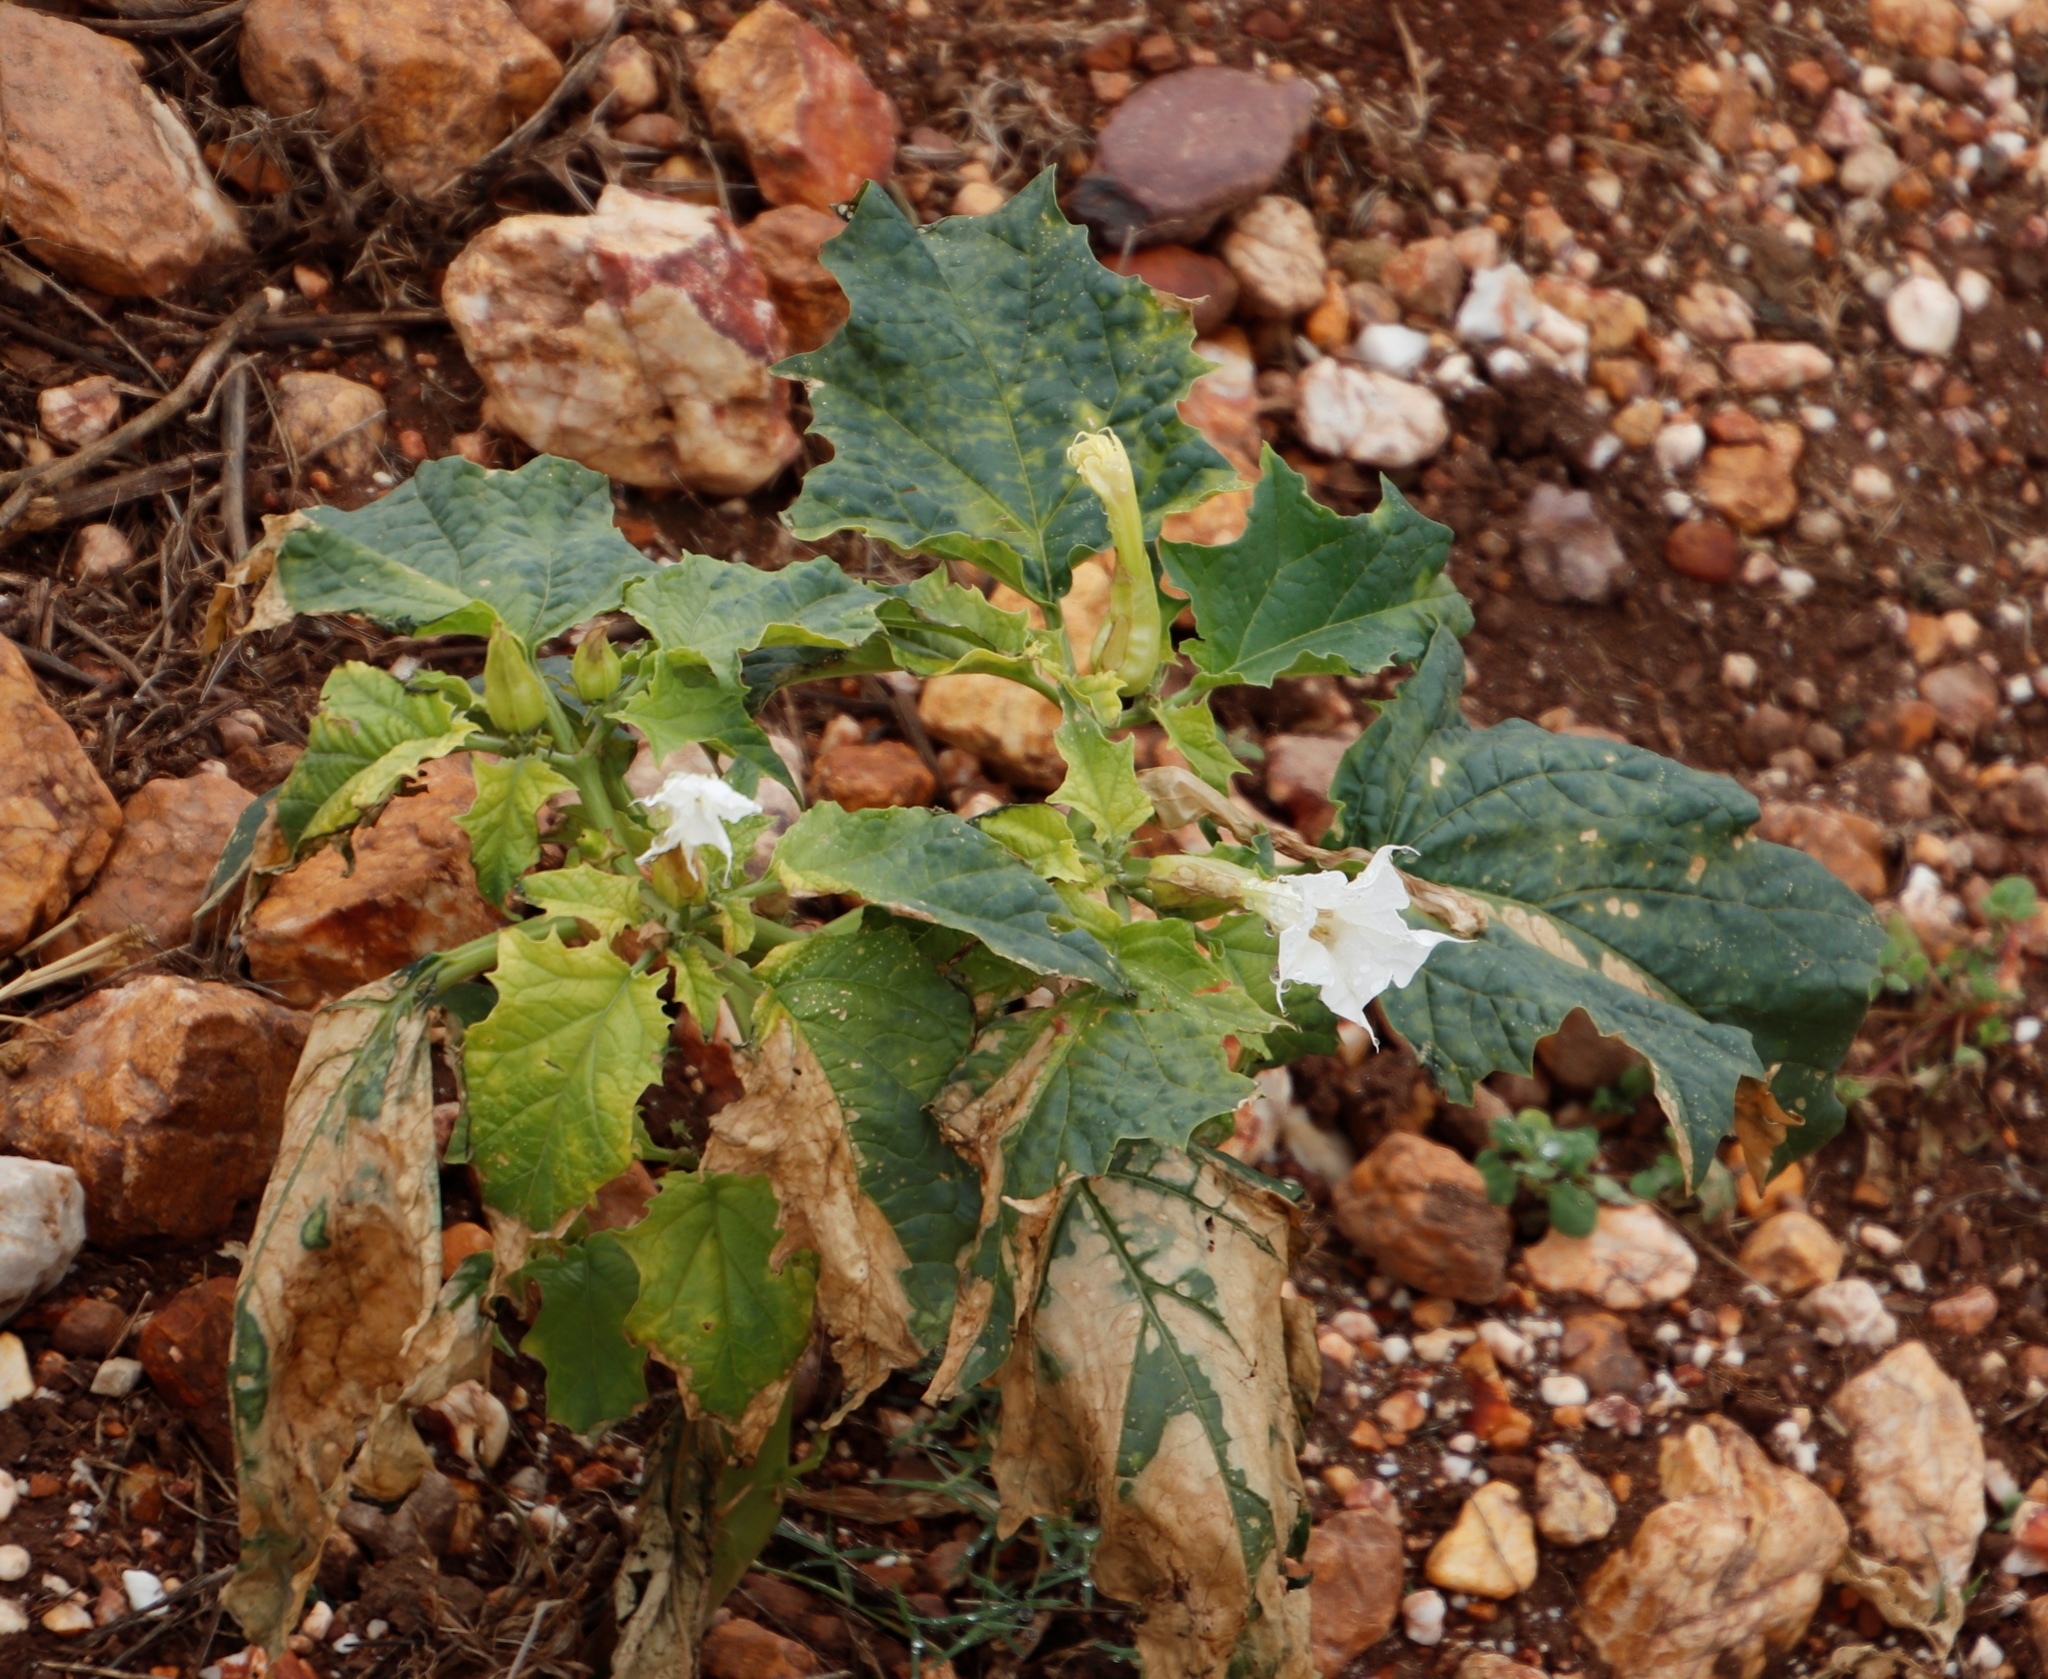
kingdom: Plantae
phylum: Tracheophyta
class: Magnoliopsida
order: Solanales
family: Solanaceae
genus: Datura
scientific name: Datura stramonium
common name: Thorn-apple
